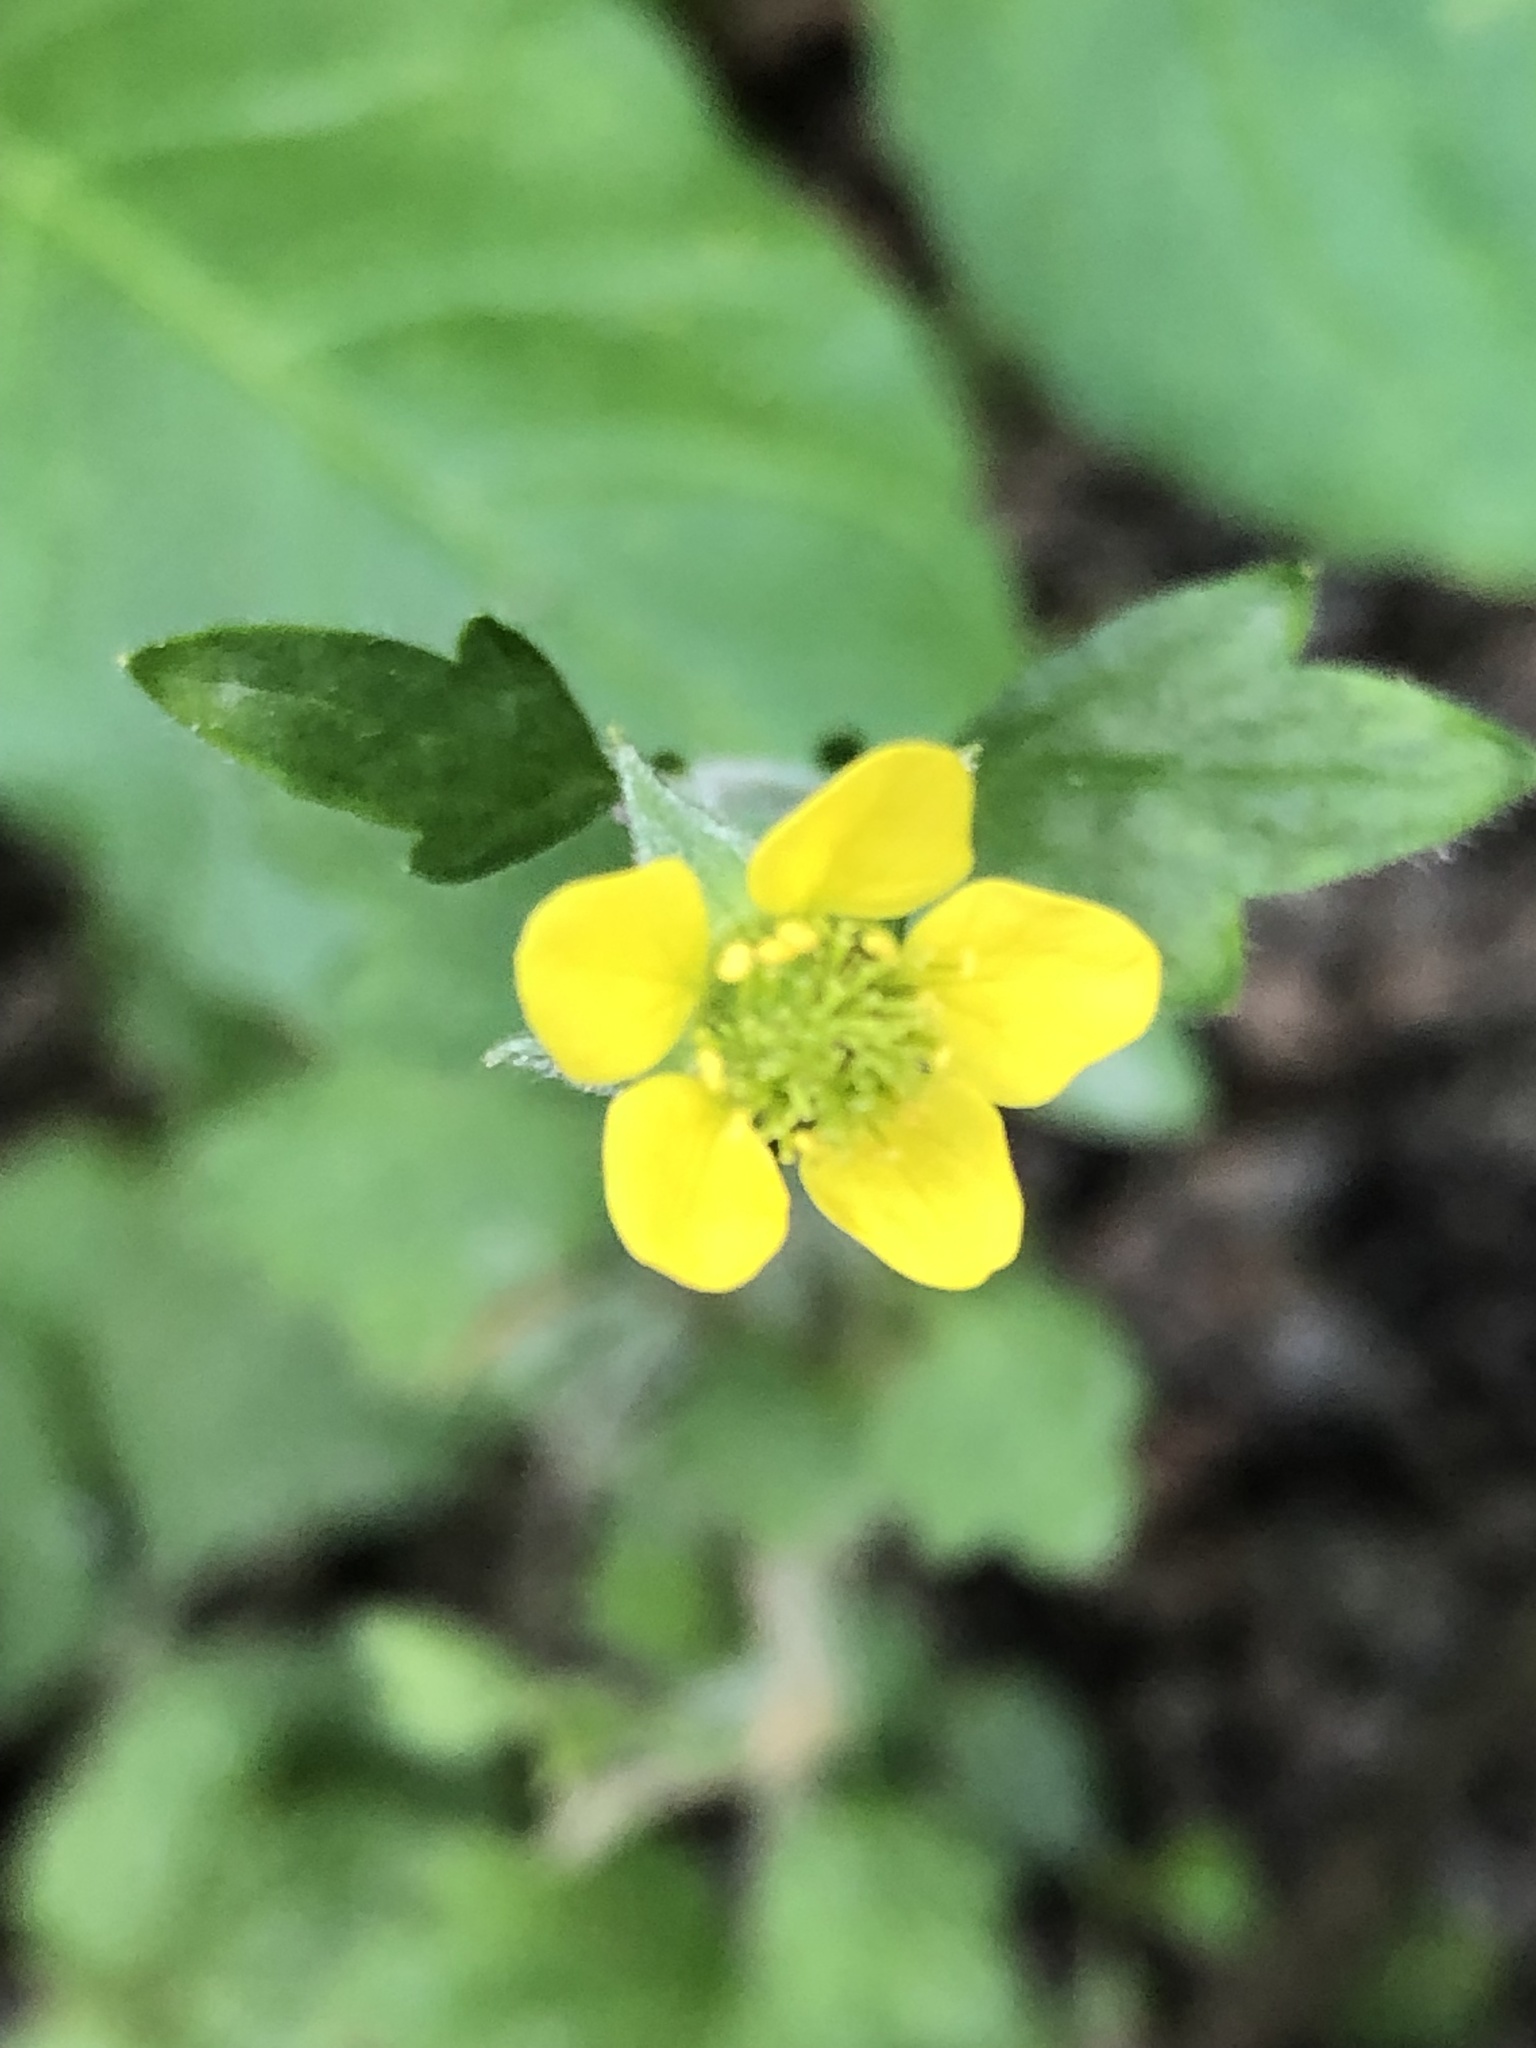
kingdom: Plantae
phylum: Tracheophyta
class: Magnoliopsida
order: Rosales
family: Rosaceae
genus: Geum
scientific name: Geum urbanum
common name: Wood avens
